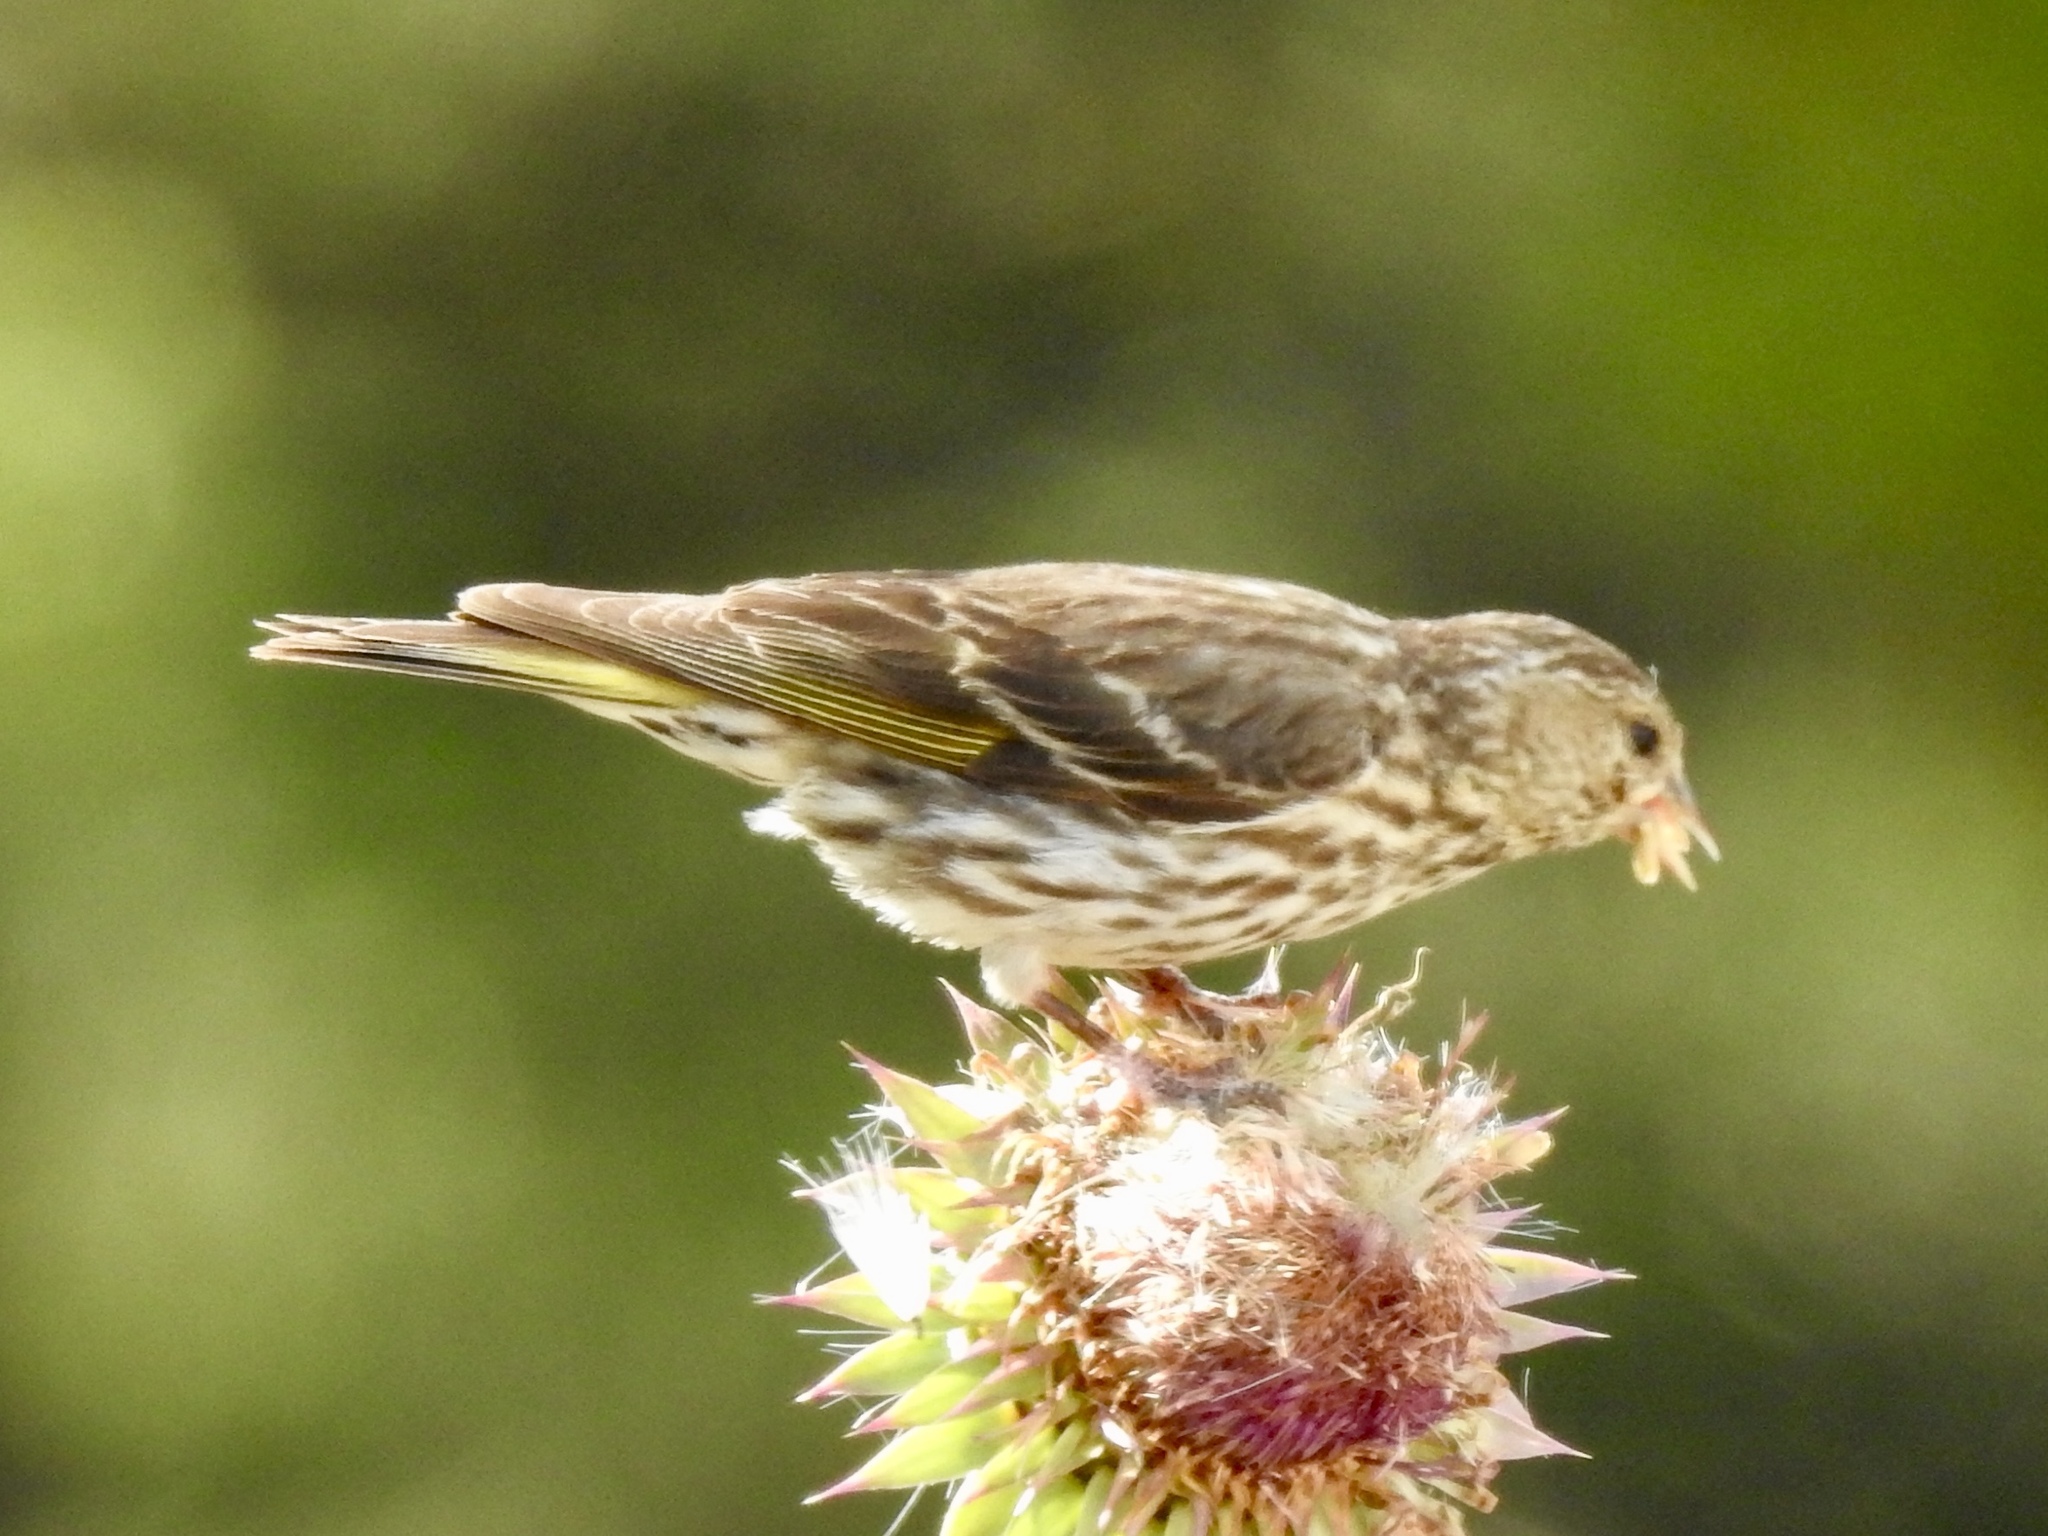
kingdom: Animalia
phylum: Chordata
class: Aves
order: Passeriformes
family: Fringillidae
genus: Spinus
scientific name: Spinus pinus
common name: Pine siskin
